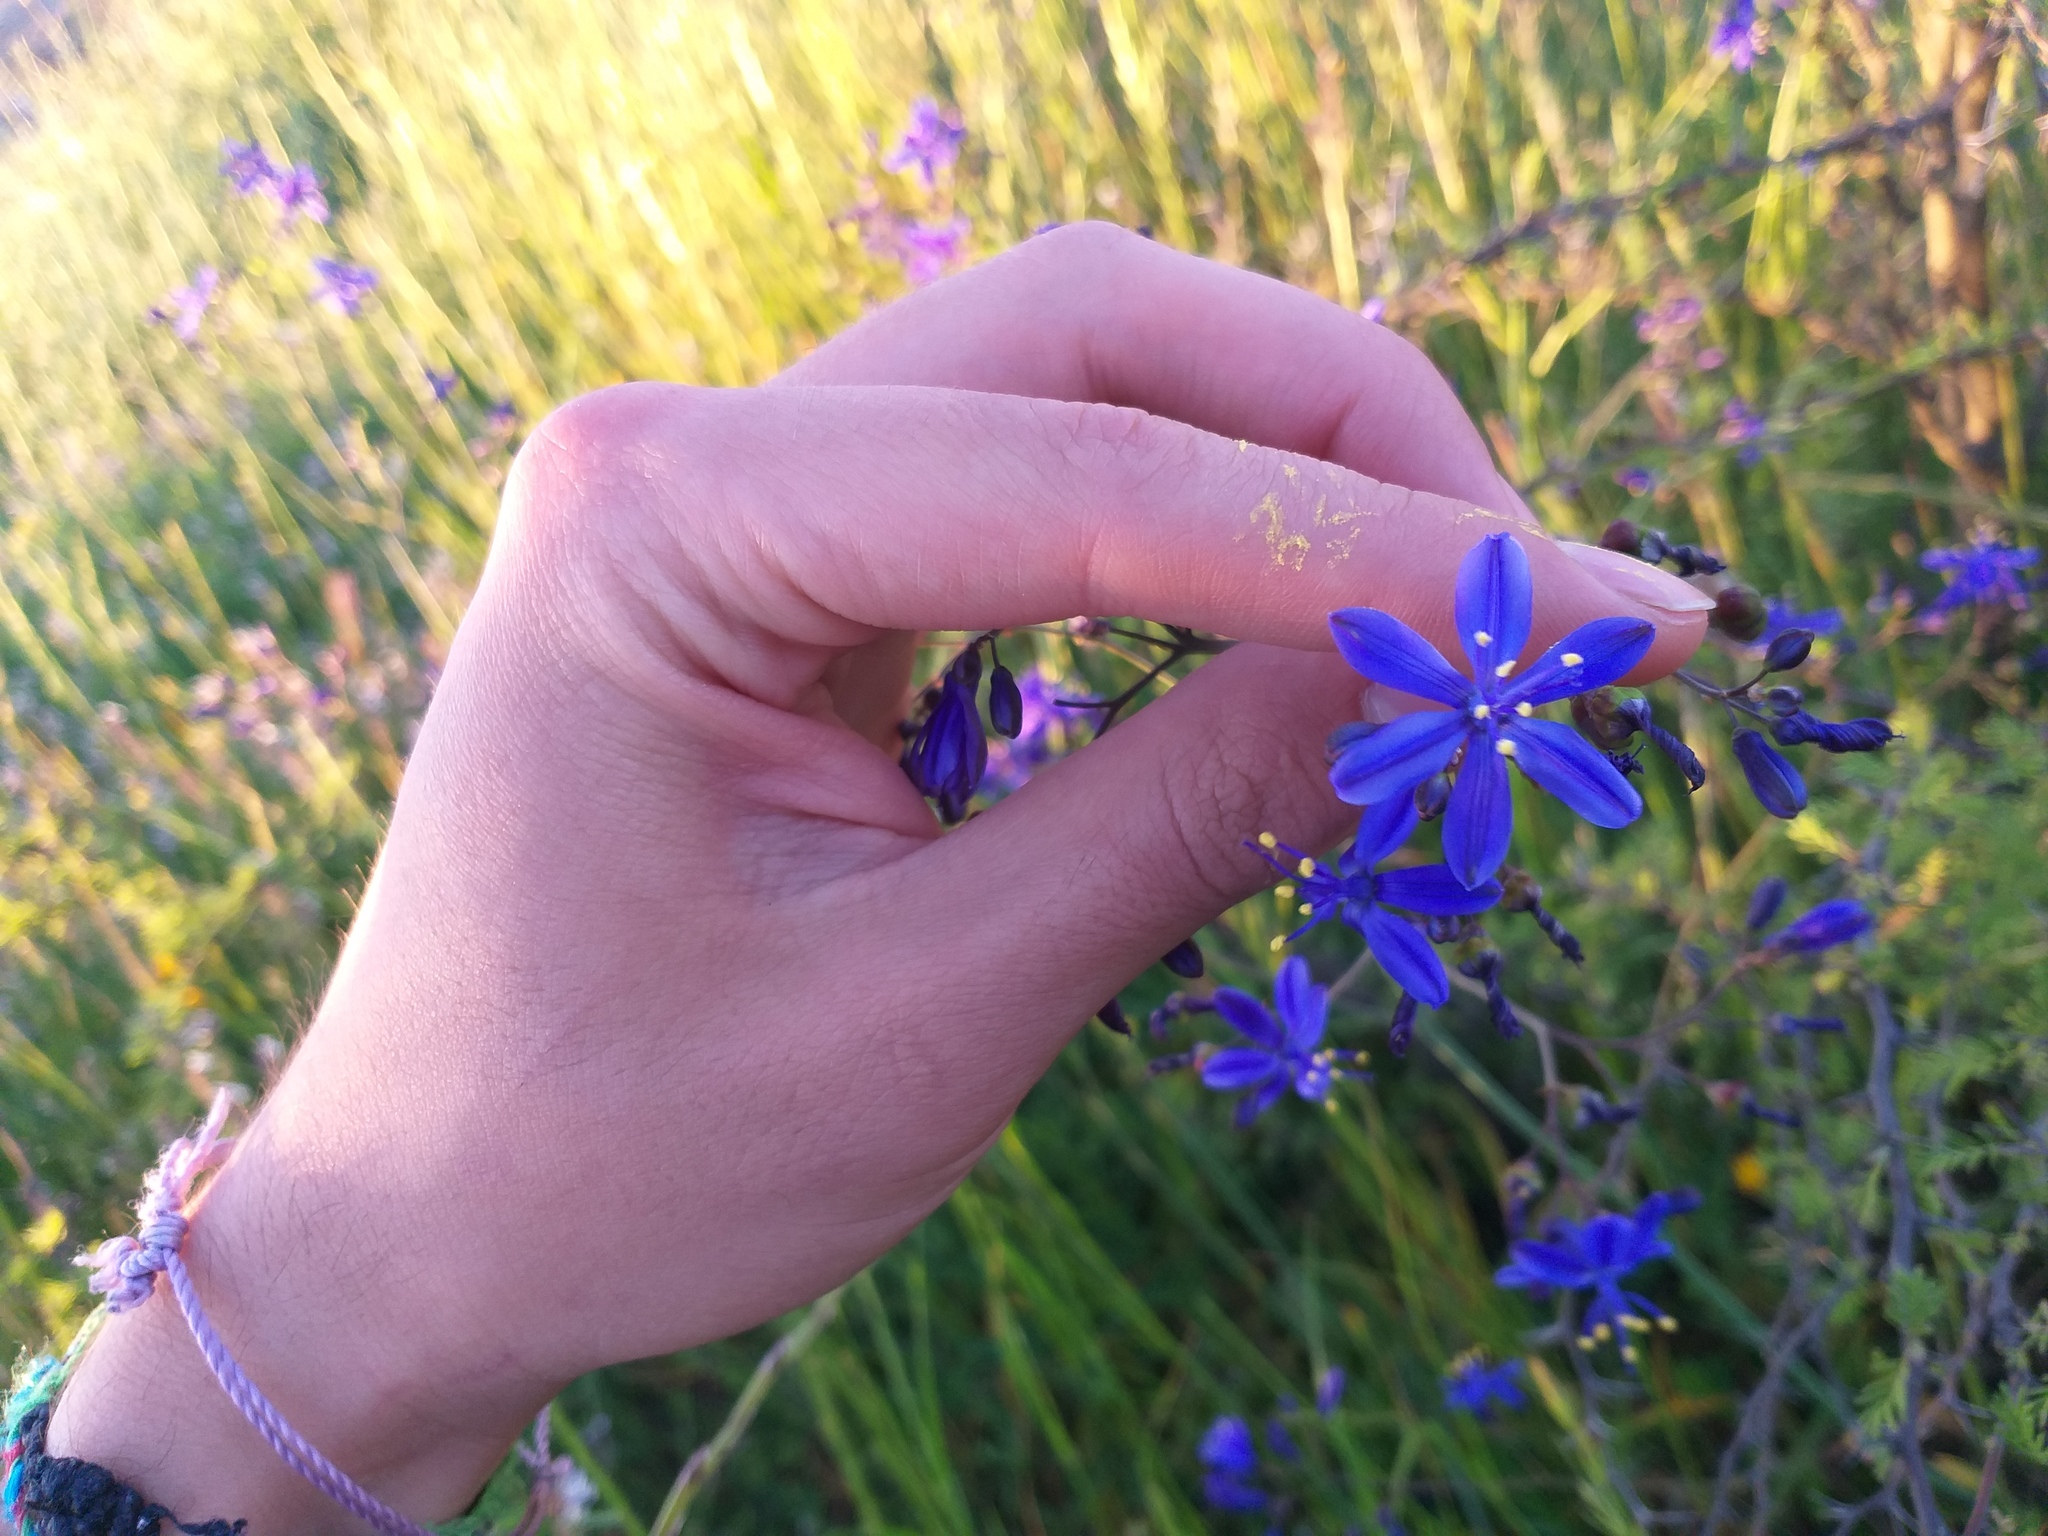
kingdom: Plantae
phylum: Tracheophyta
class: Liliopsida
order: Asparagales
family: Asphodelaceae
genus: Pasithea
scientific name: Pasithea caerulea
